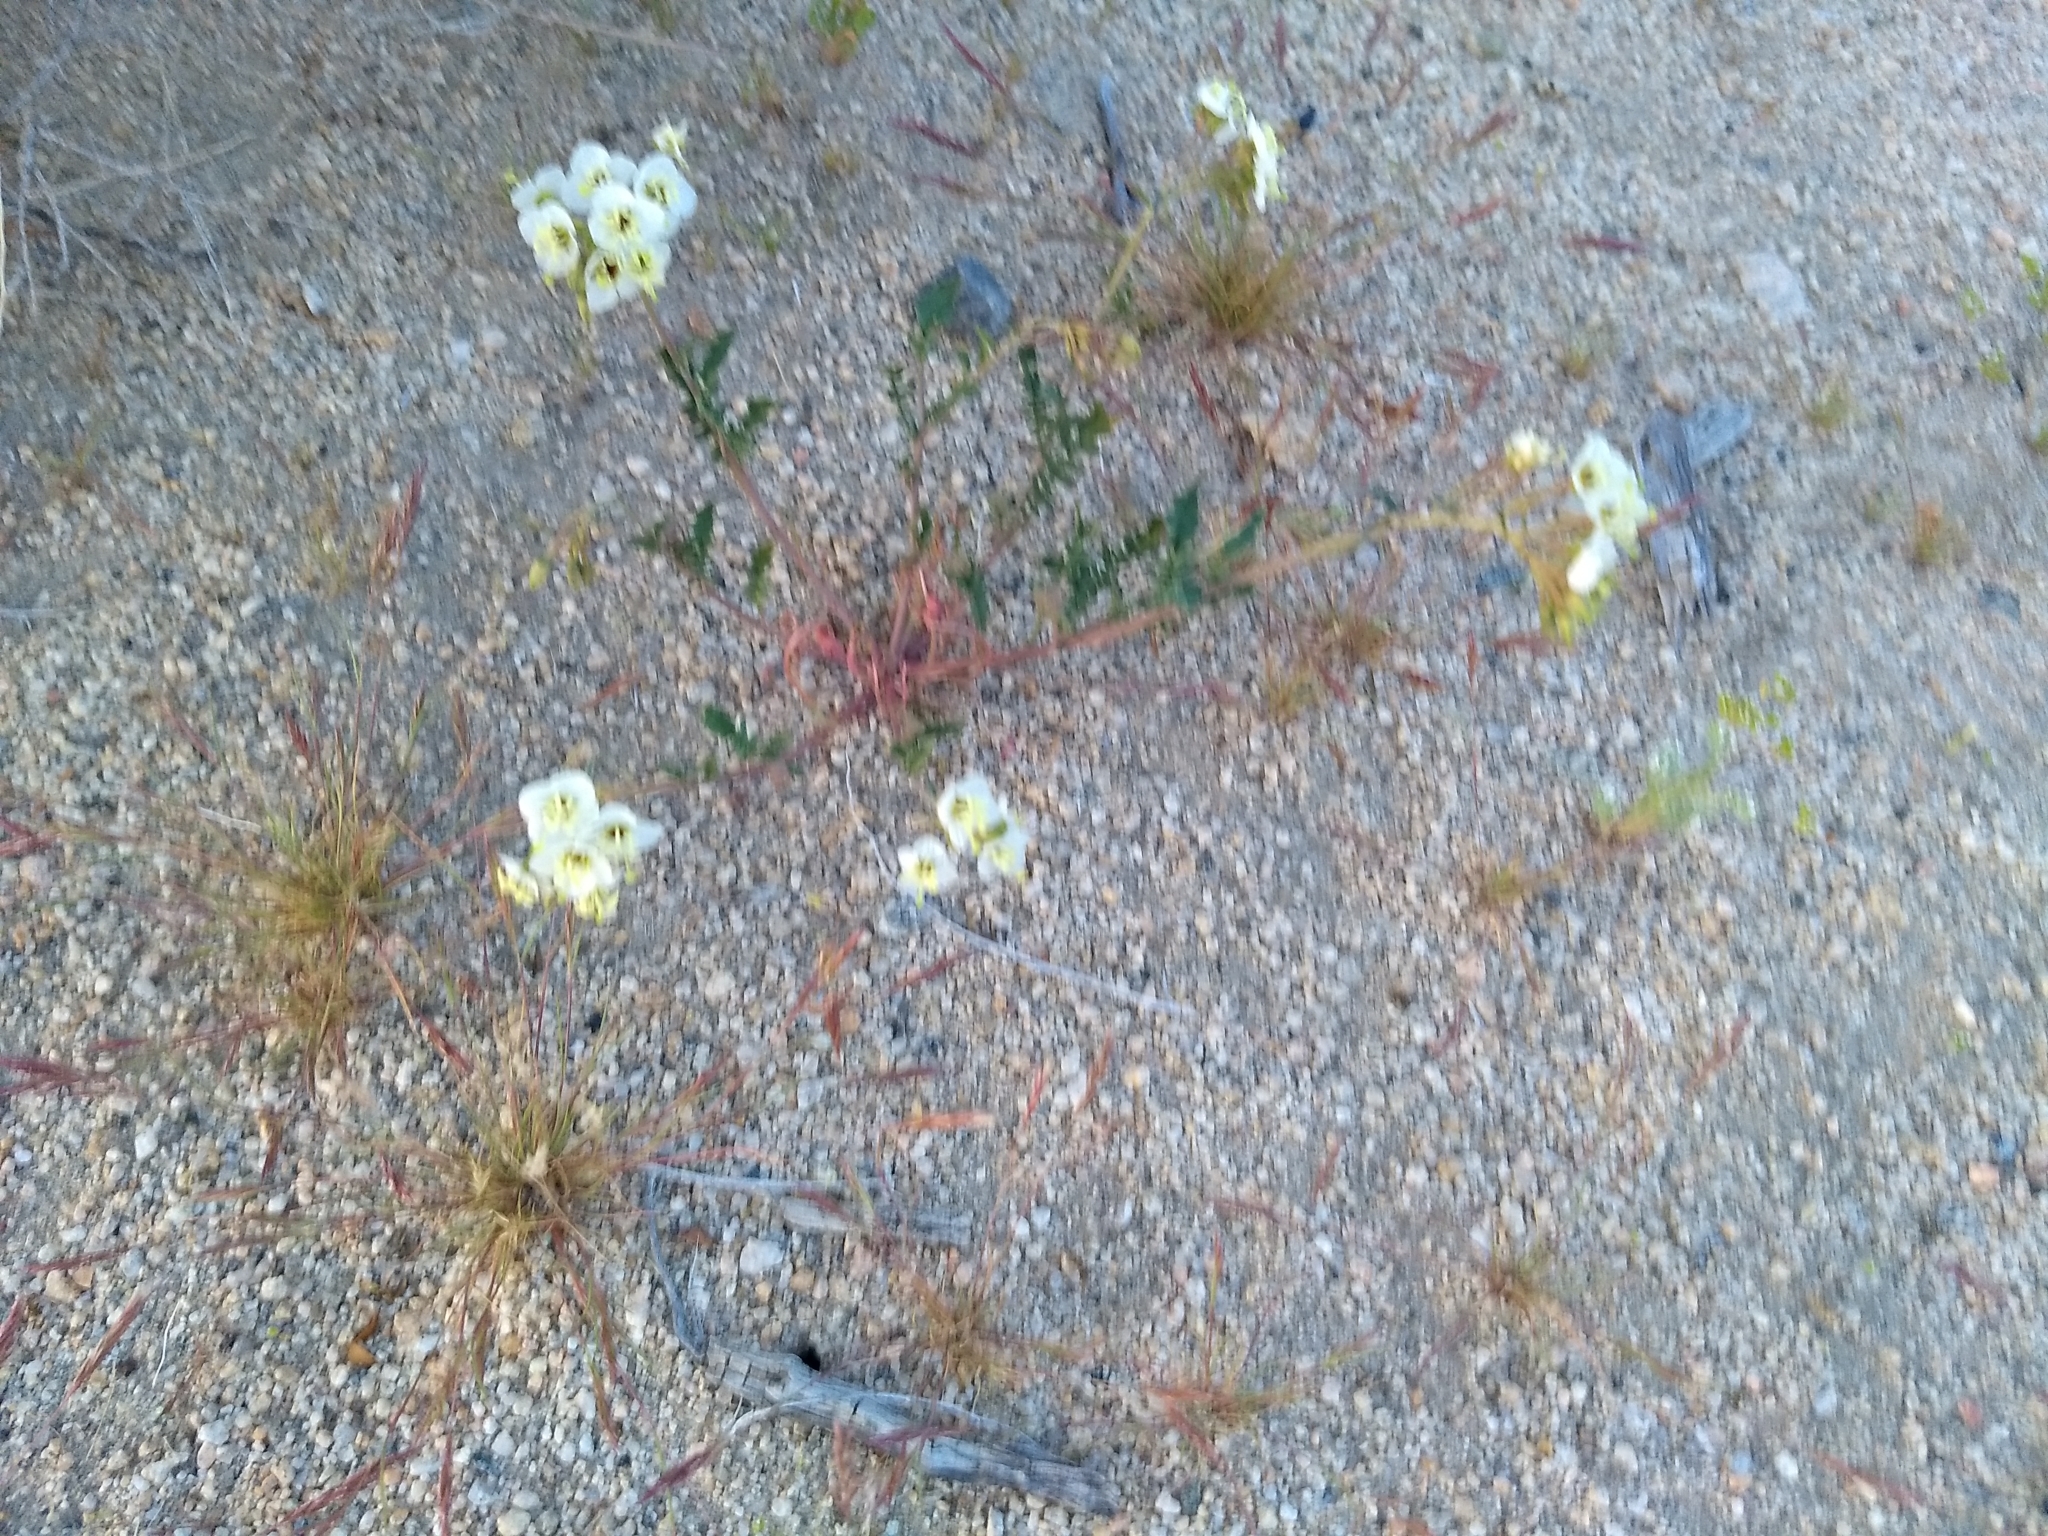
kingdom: Plantae
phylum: Tracheophyta
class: Magnoliopsida
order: Myrtales
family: Onagraceae
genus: Chylismia
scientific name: Chylismia claviformis
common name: Browneyes
